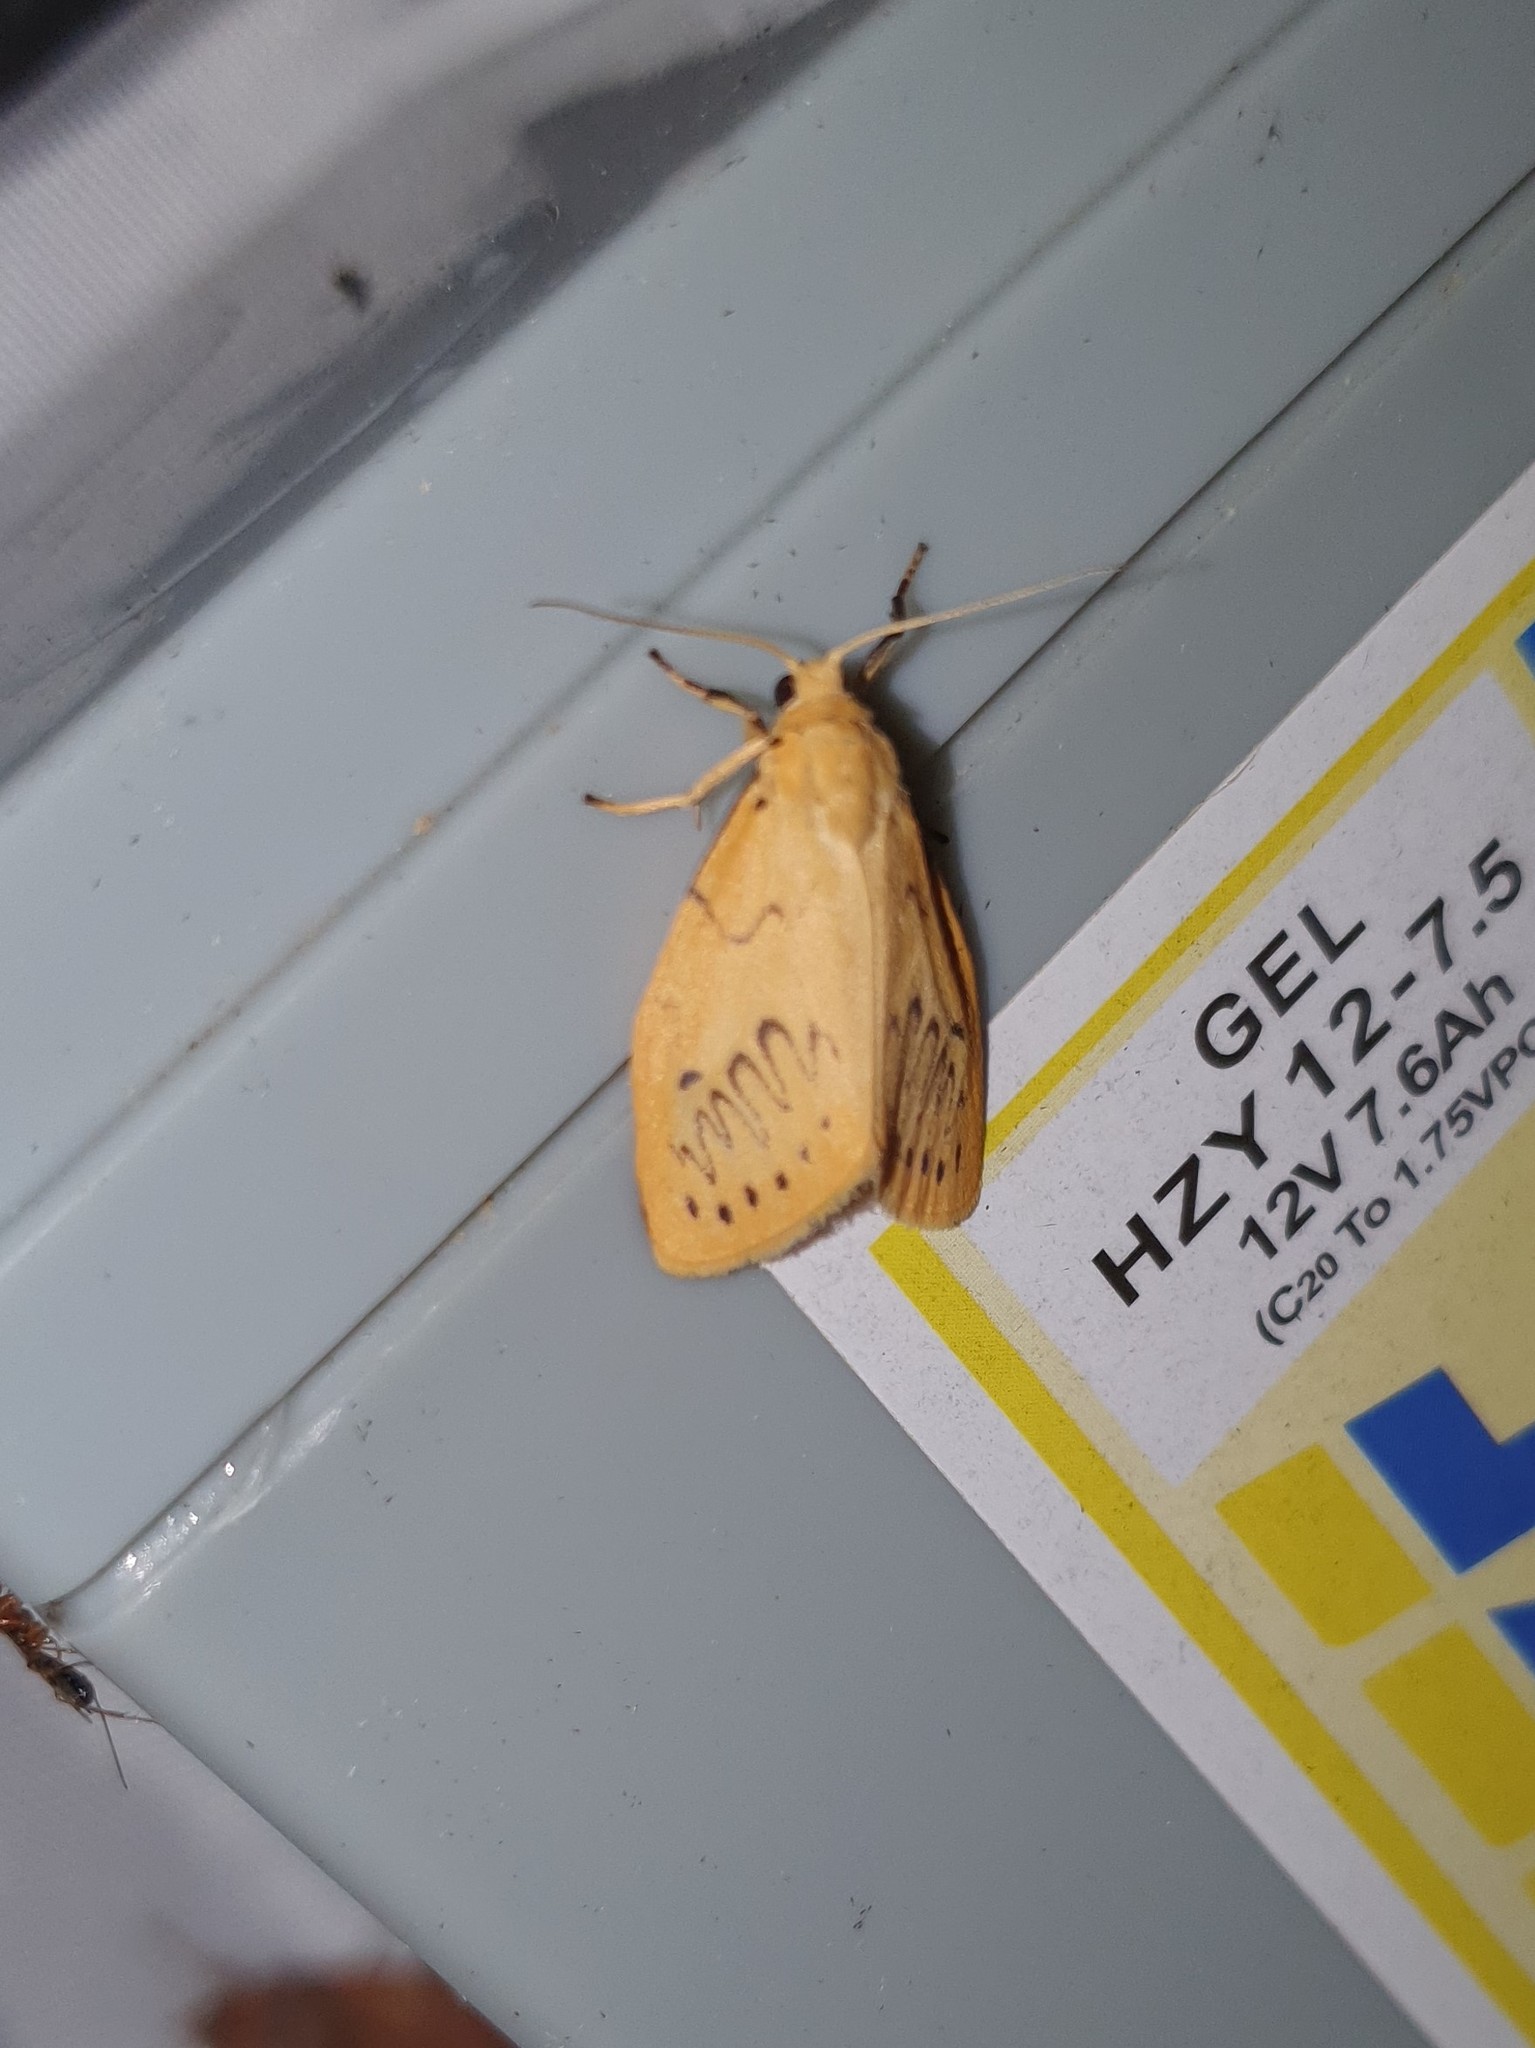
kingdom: Animalia
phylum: Arthropoda
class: Insecta
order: Lepidoptera
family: Erebidae
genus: Miltochrista
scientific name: Miltochrista miniata
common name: Rosy footman
